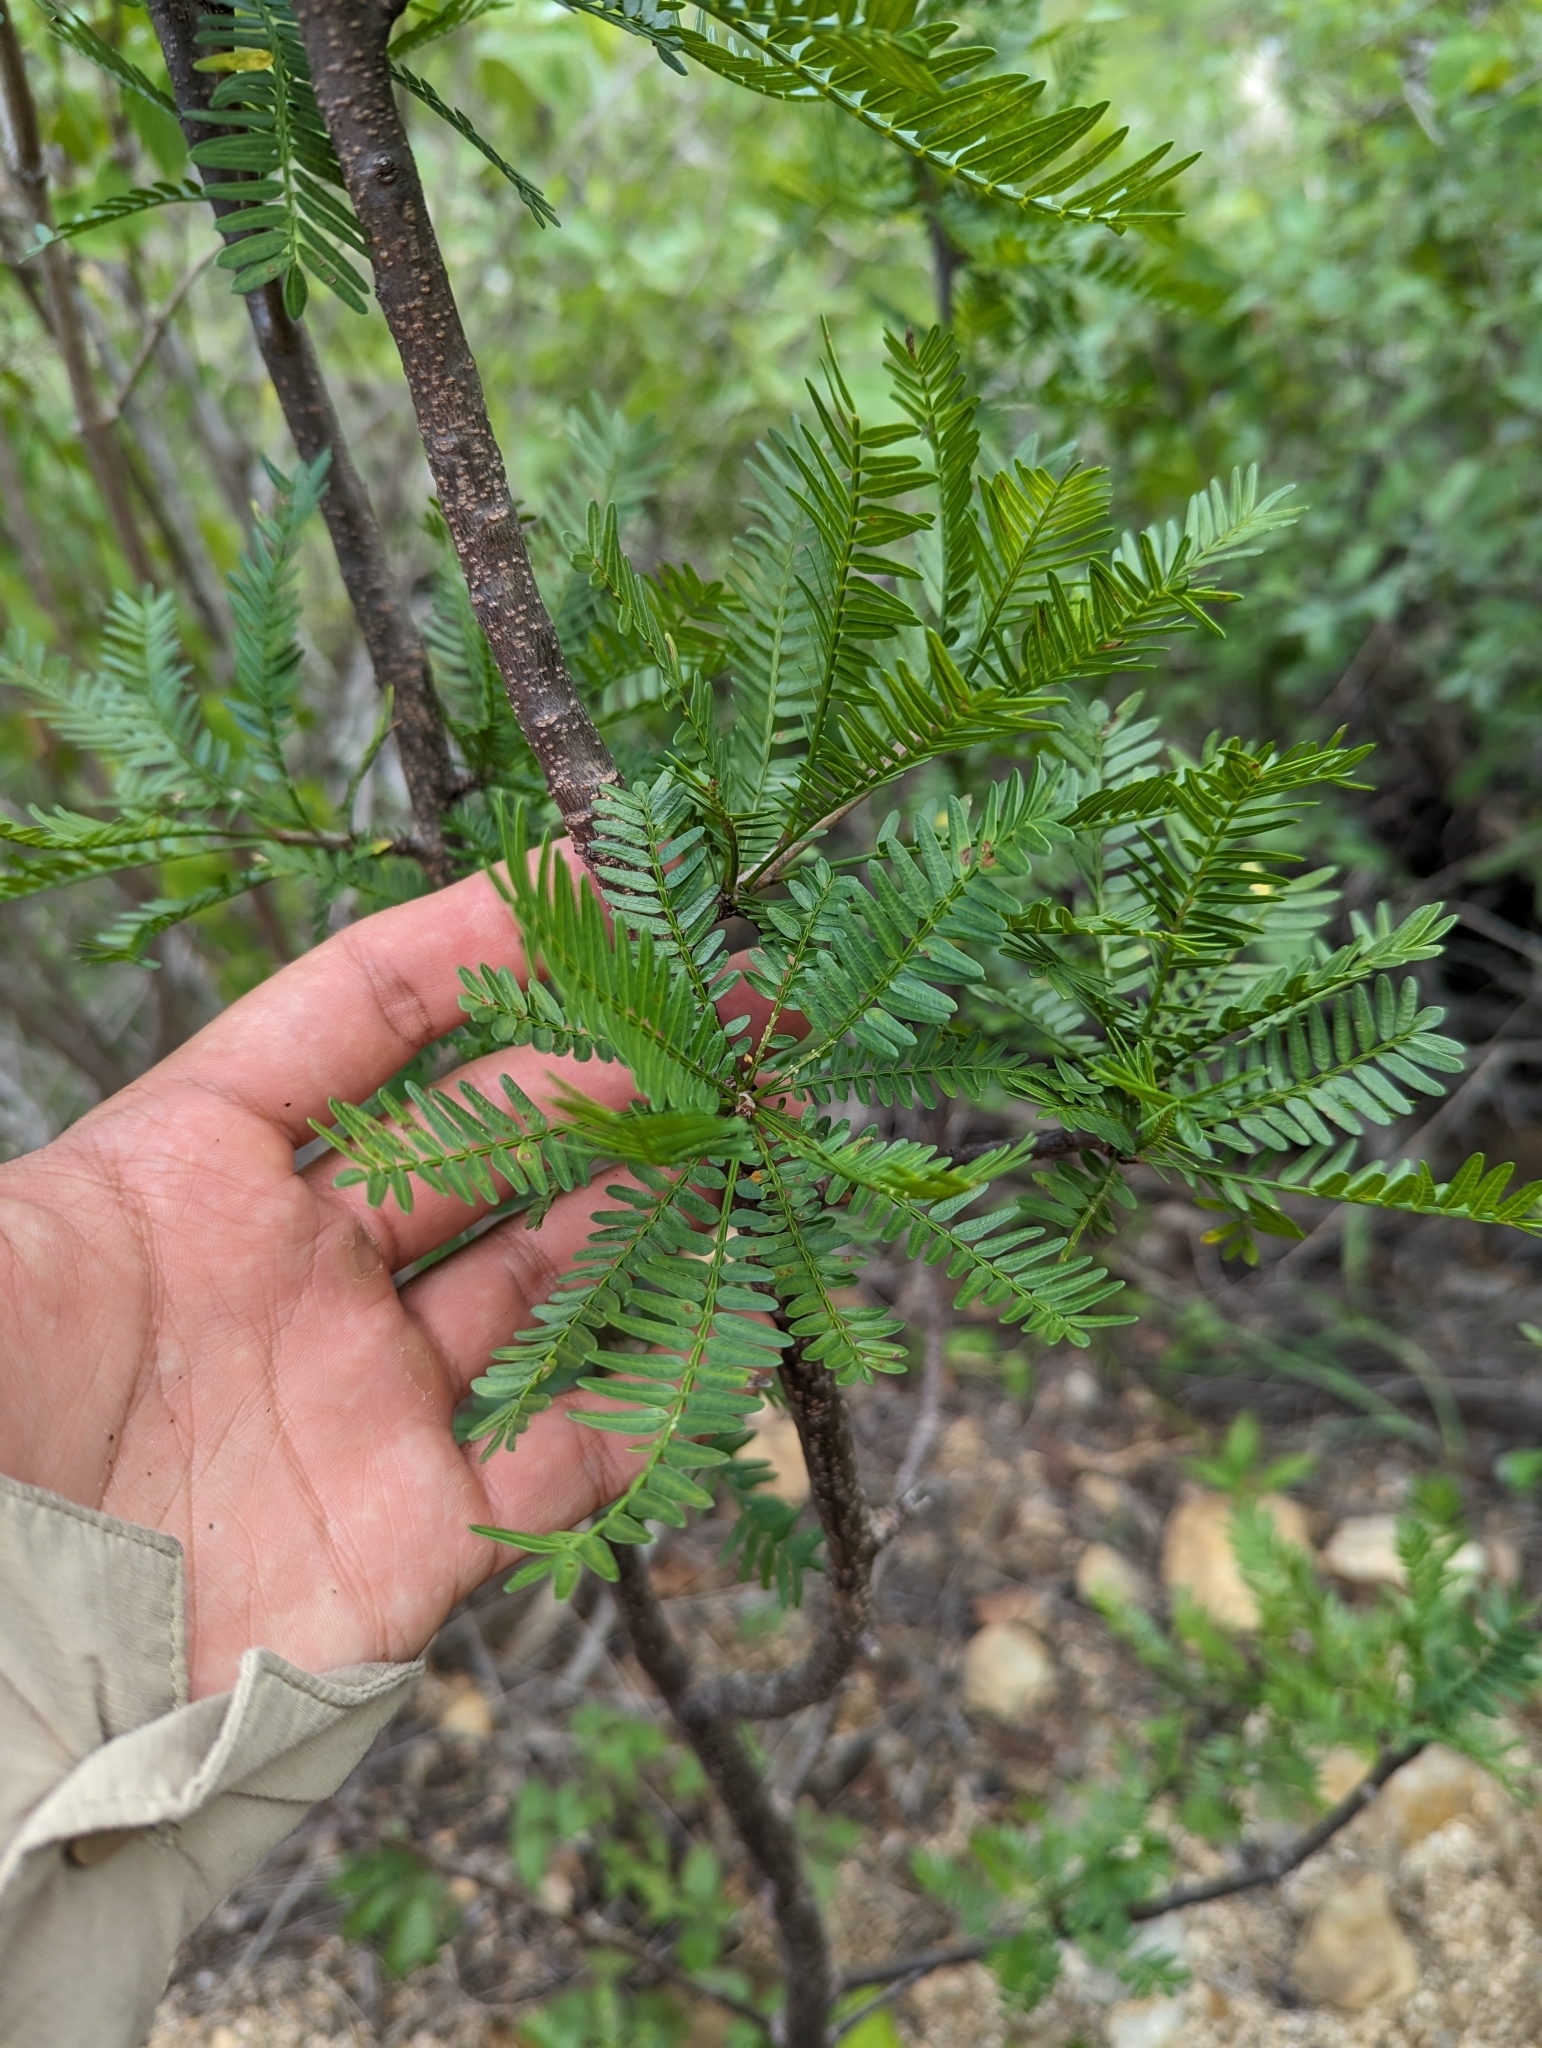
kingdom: Plantae
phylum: Tracheophyta
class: Magnoliopsida
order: Sapindales
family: Burseraceae
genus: Bursera
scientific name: Bursera microphylla
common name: Elephant tree
